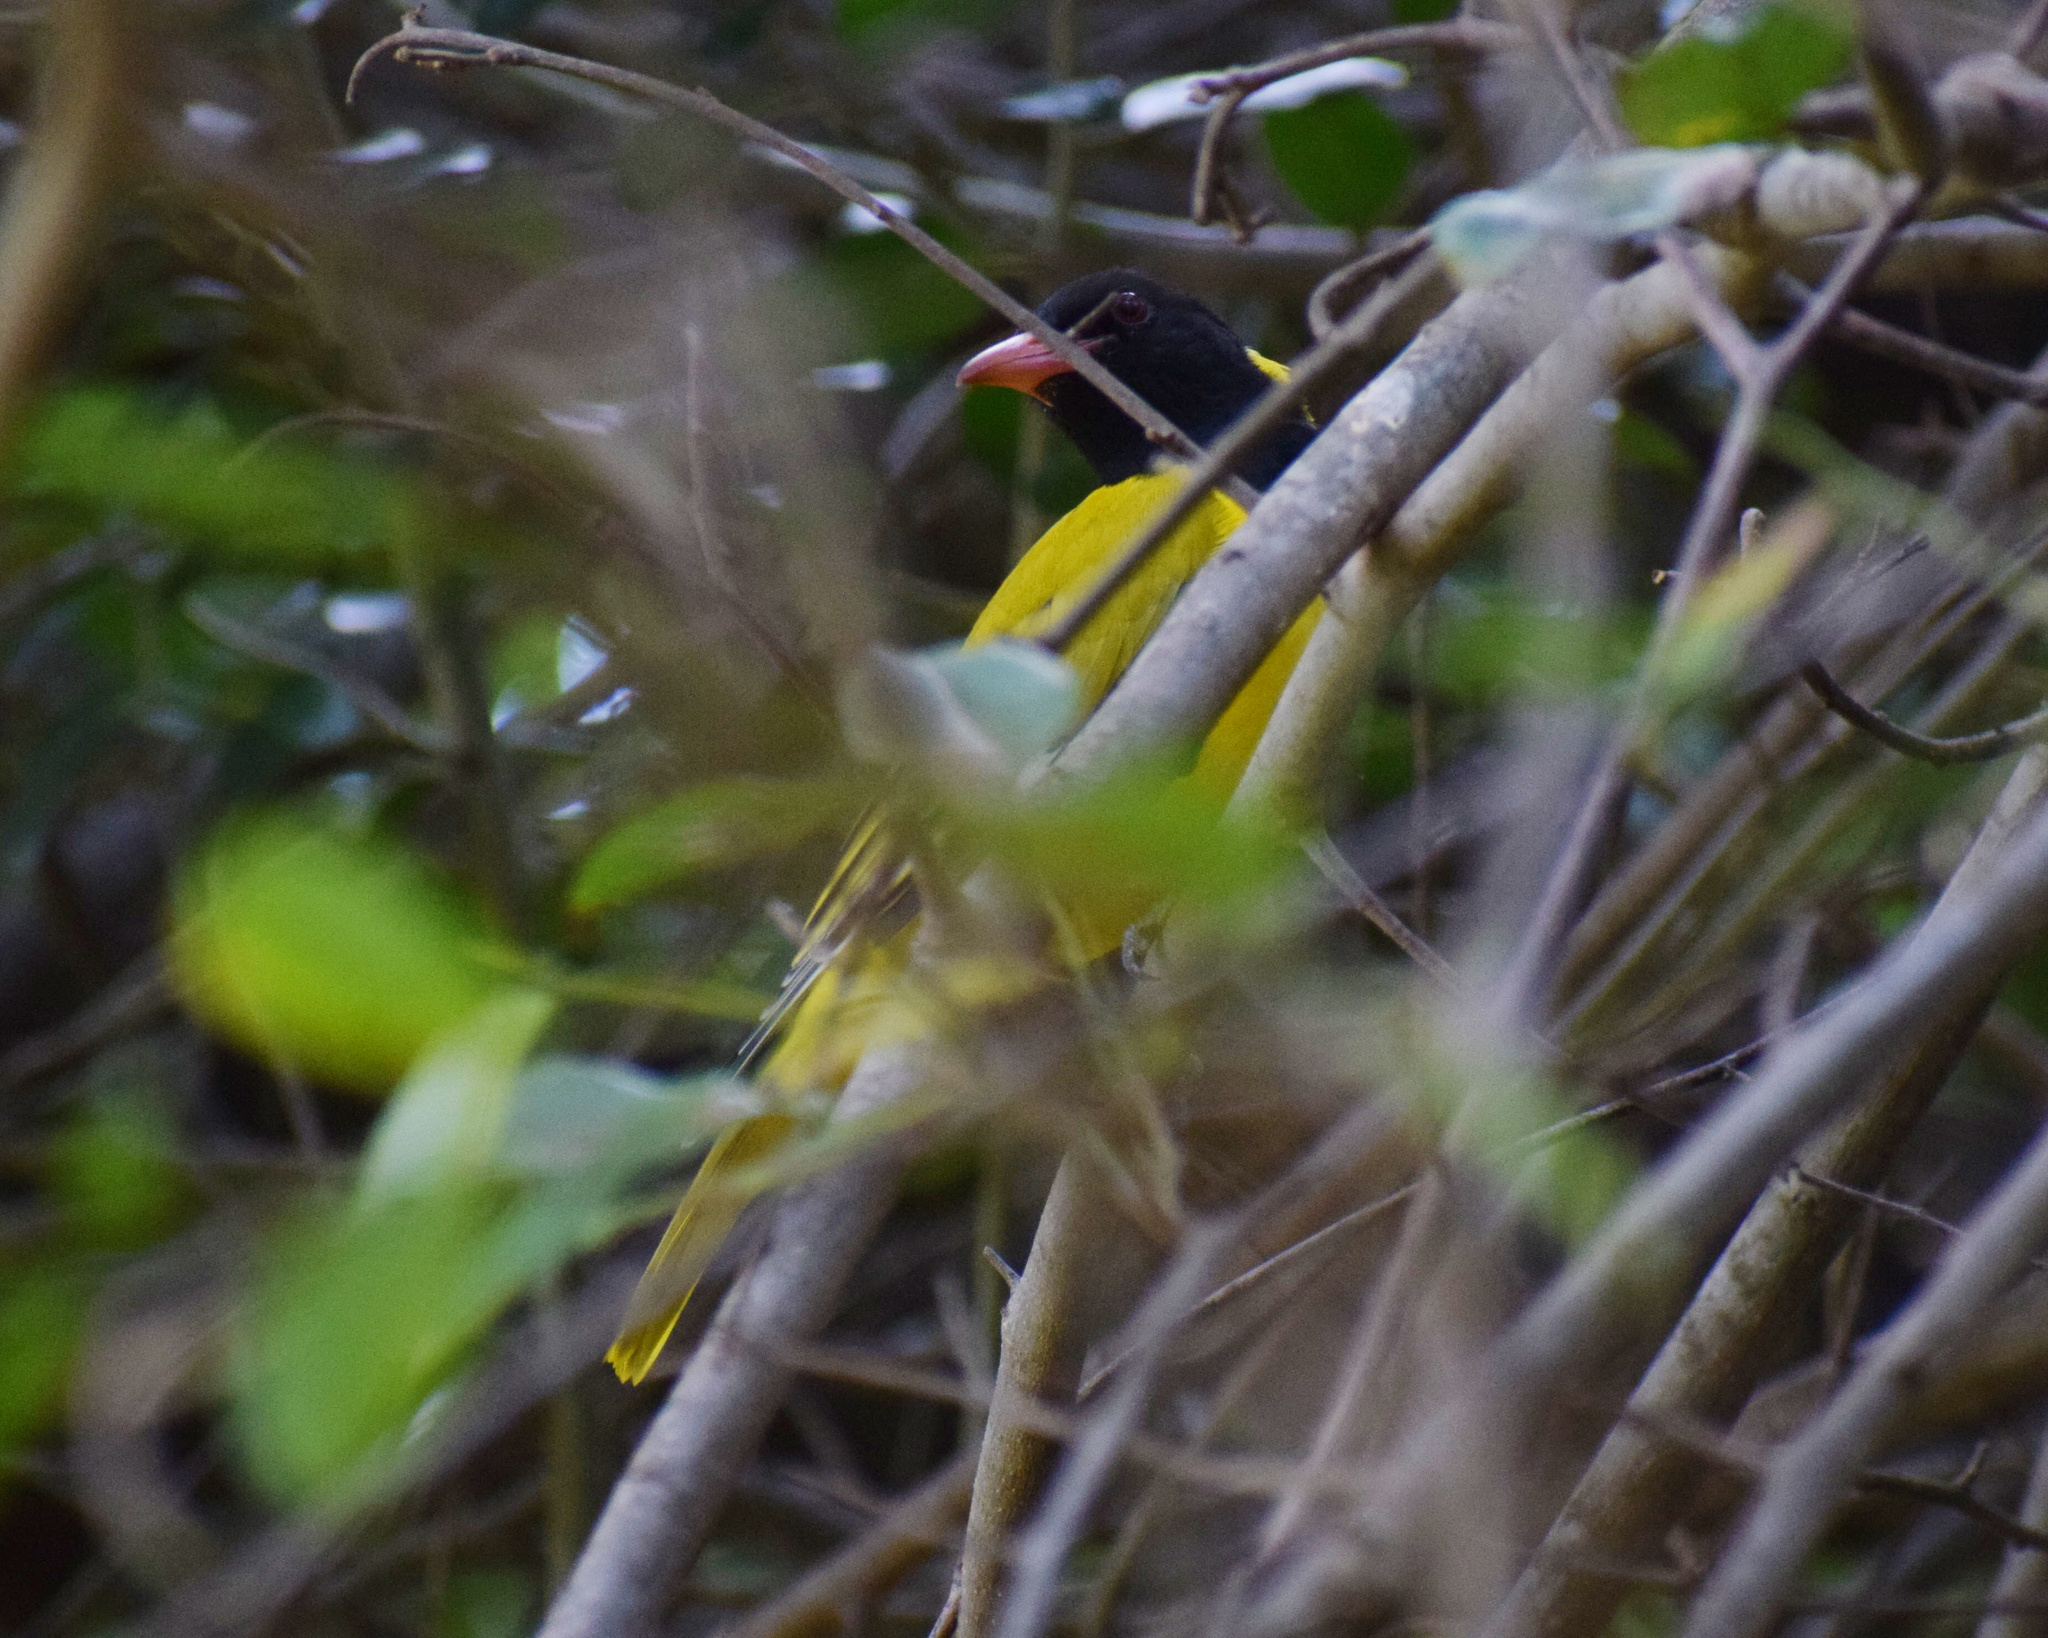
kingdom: Animalia
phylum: Chordata
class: Aves
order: Passeriformes
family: Oriolidae
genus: Oriolus
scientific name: Oriolus larvatus
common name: Black-headed oriole
